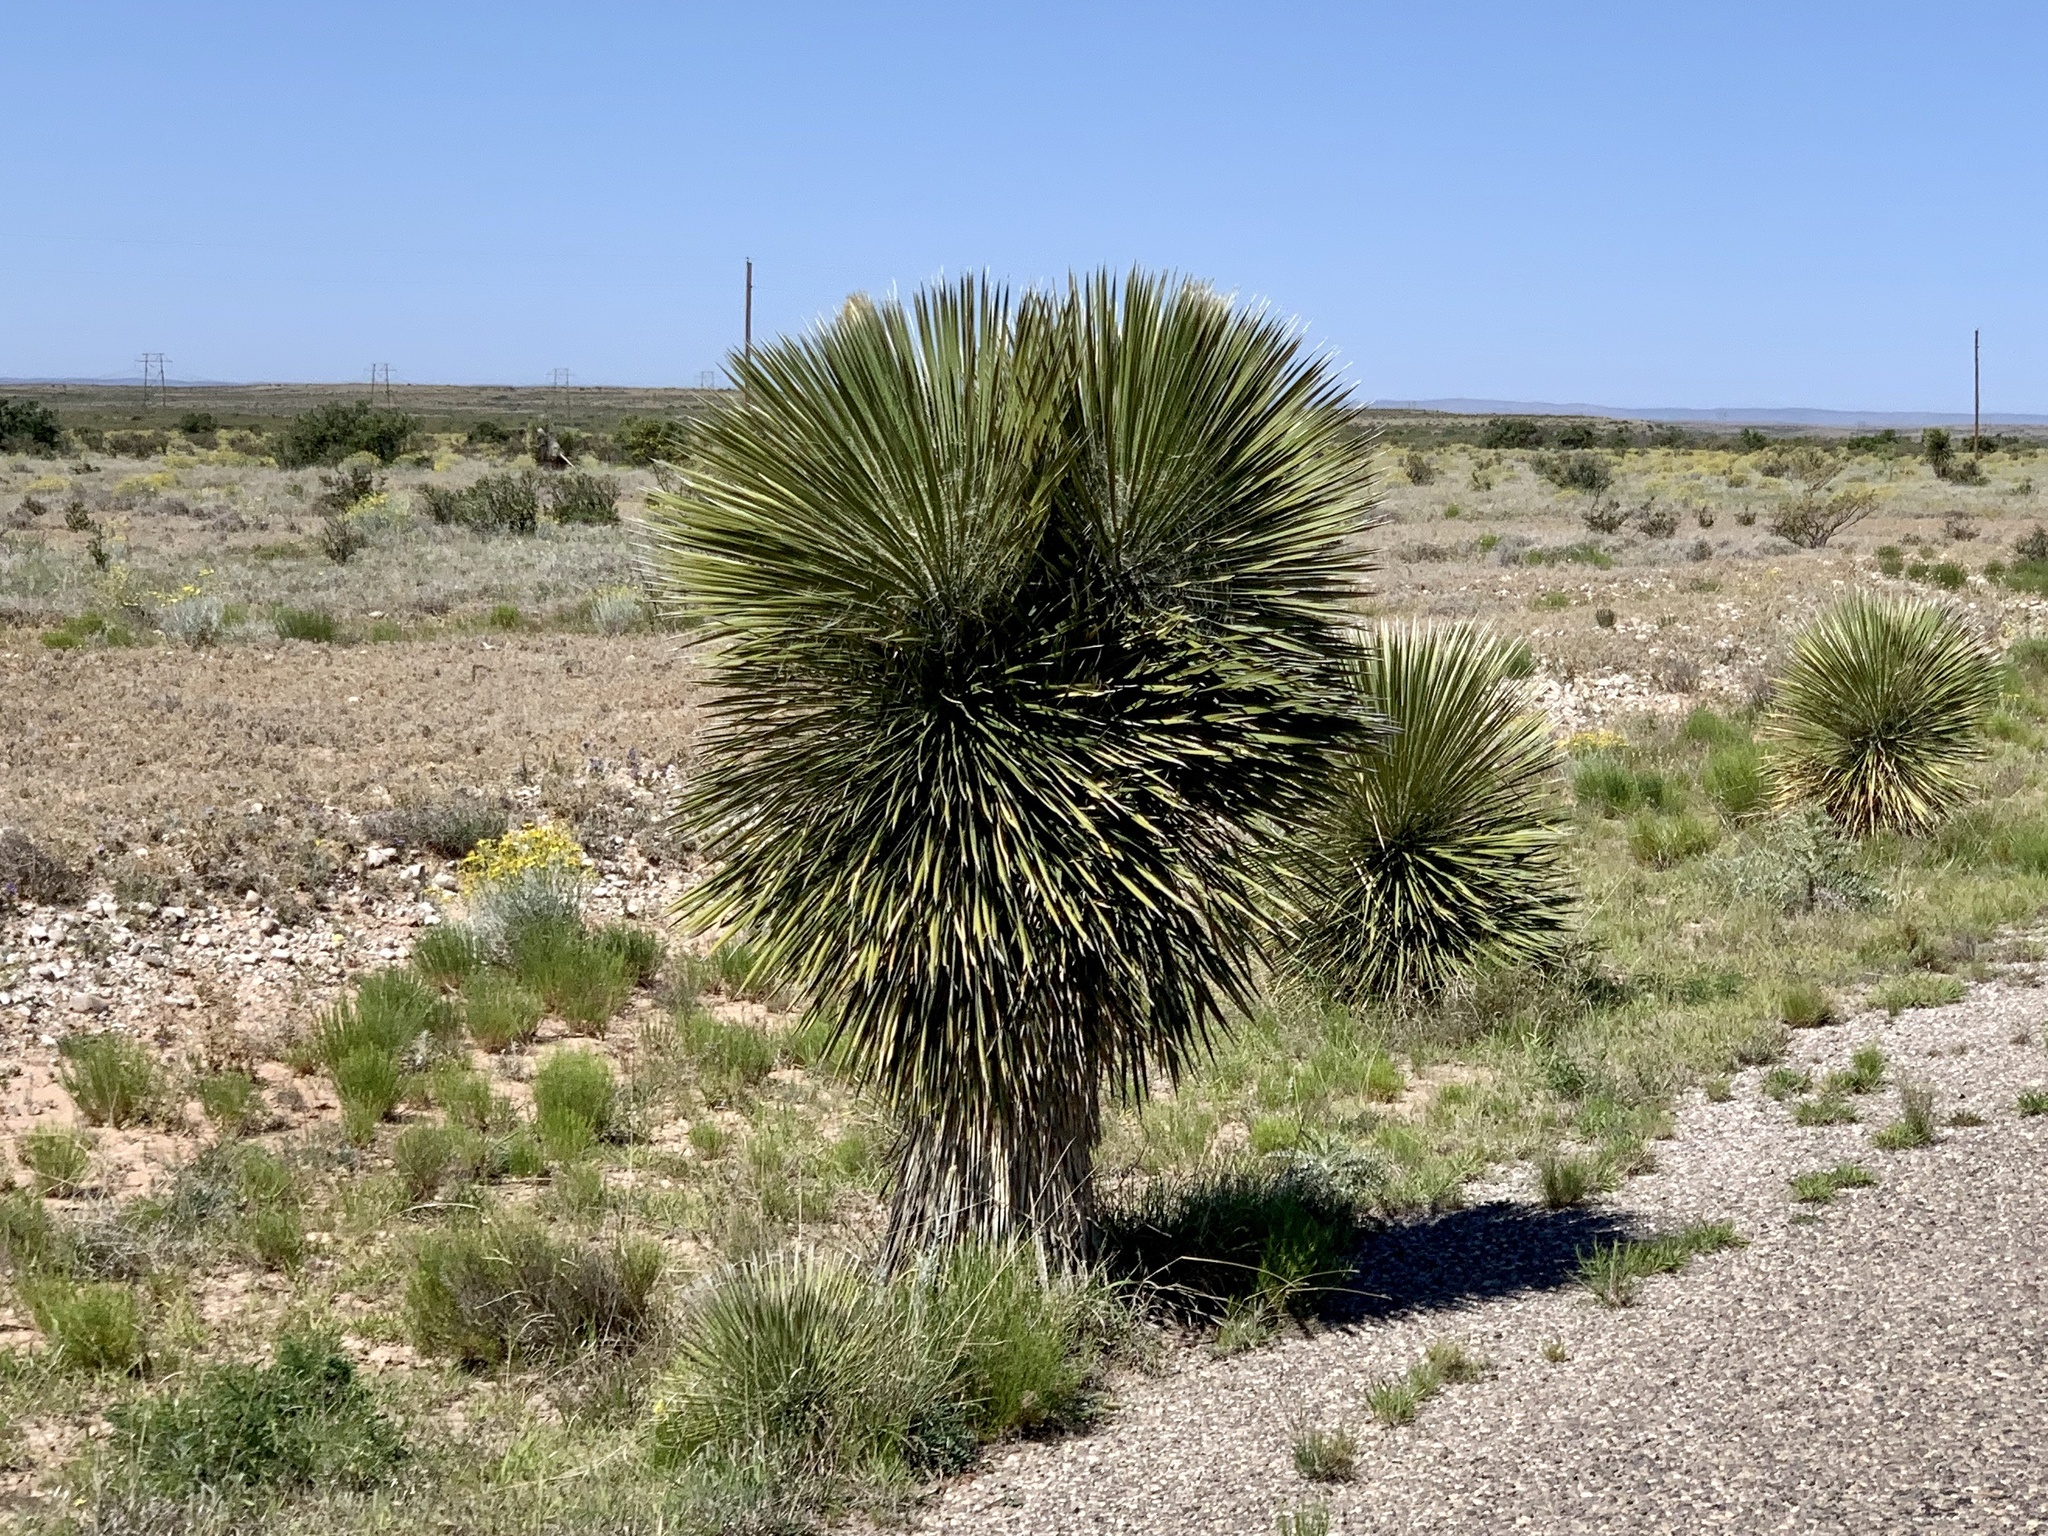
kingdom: Plantae
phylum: Tracheophyta
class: Liliopsida
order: Asparagales
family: Asparagaceae
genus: Yucca
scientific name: Yucca elata
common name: Palmella
